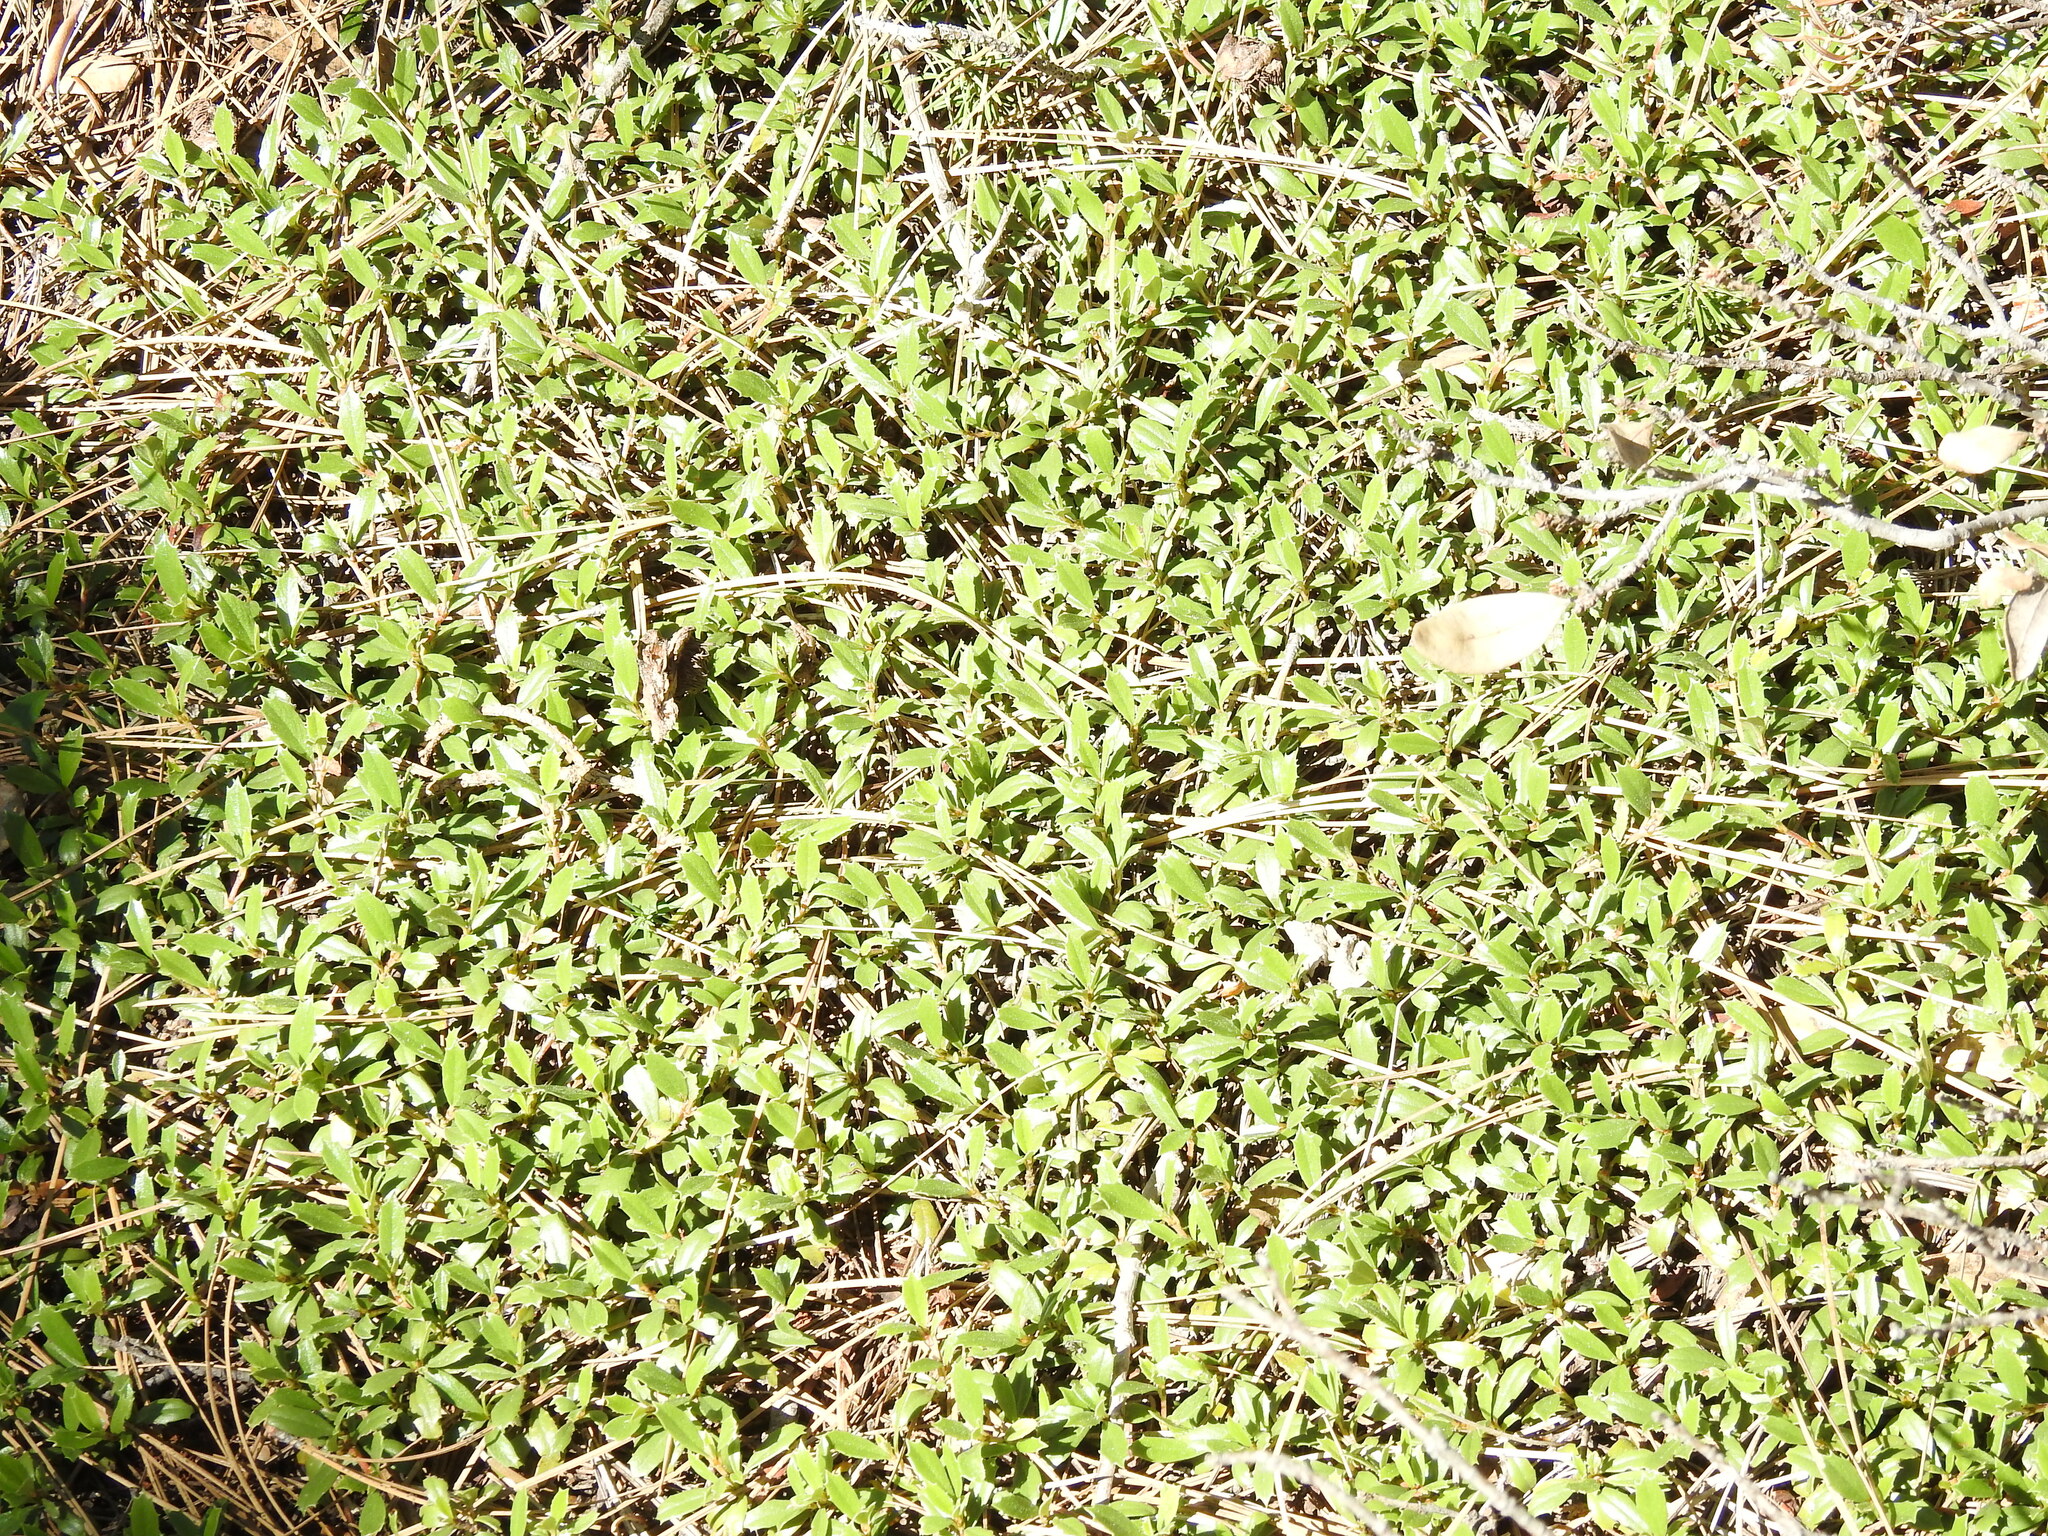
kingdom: Plantae
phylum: Tracheophyta
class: Magnoliopsida
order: Rosales
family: Rhamnaceae
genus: Ceanothus
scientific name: Ceanothus prostratus
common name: Mahala-mat
